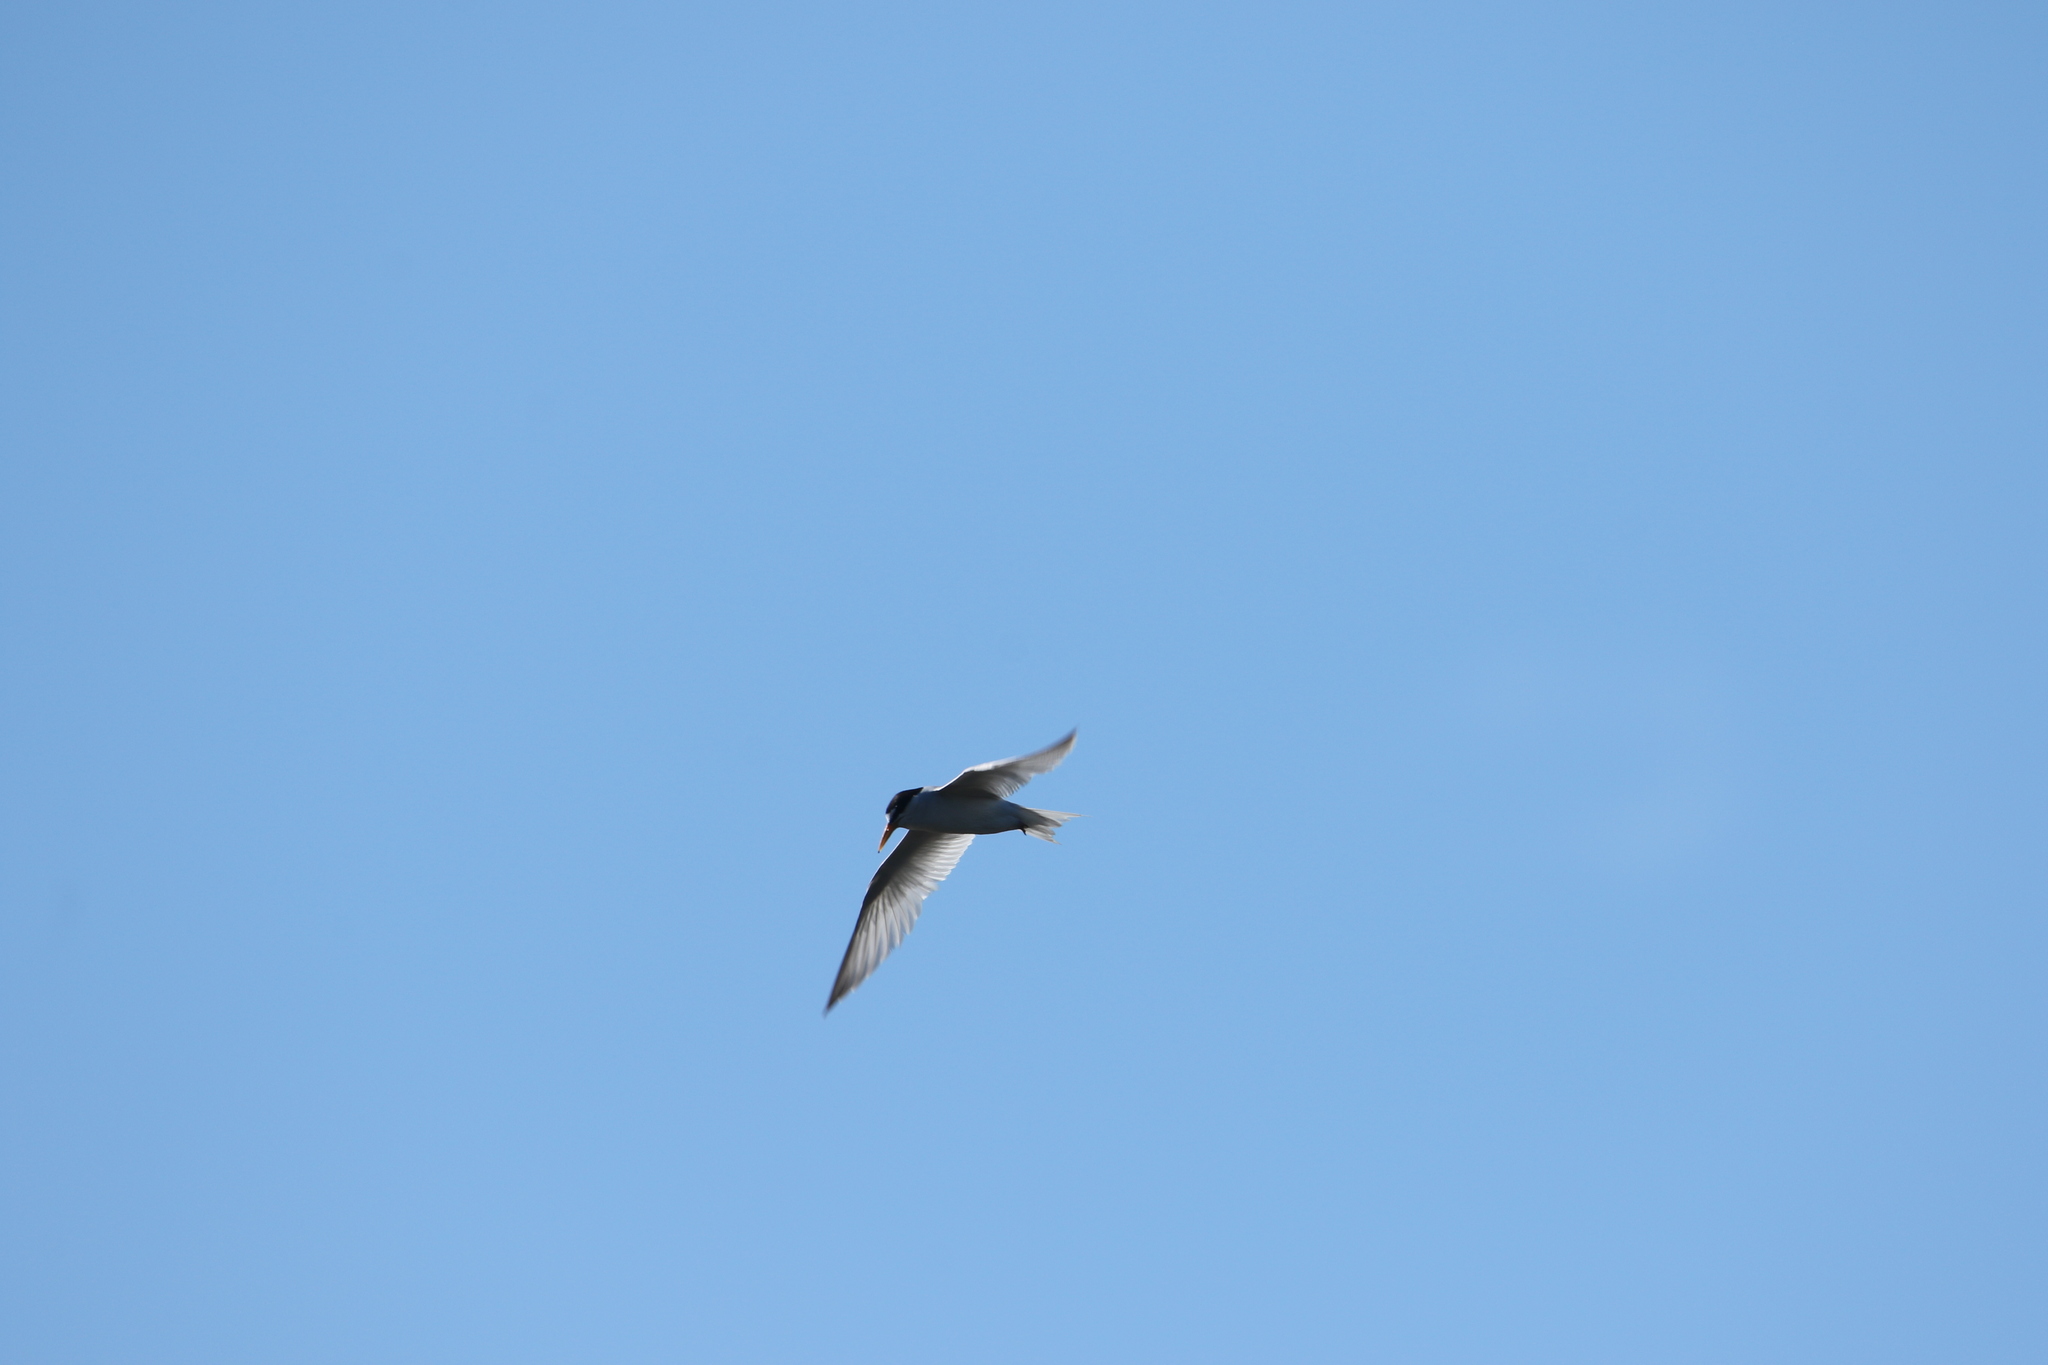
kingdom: Animalia
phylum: Chordata
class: Aves
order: Charadriiformes
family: Laridae
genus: Sternula
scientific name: Sternula antillarum
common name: Least tern
